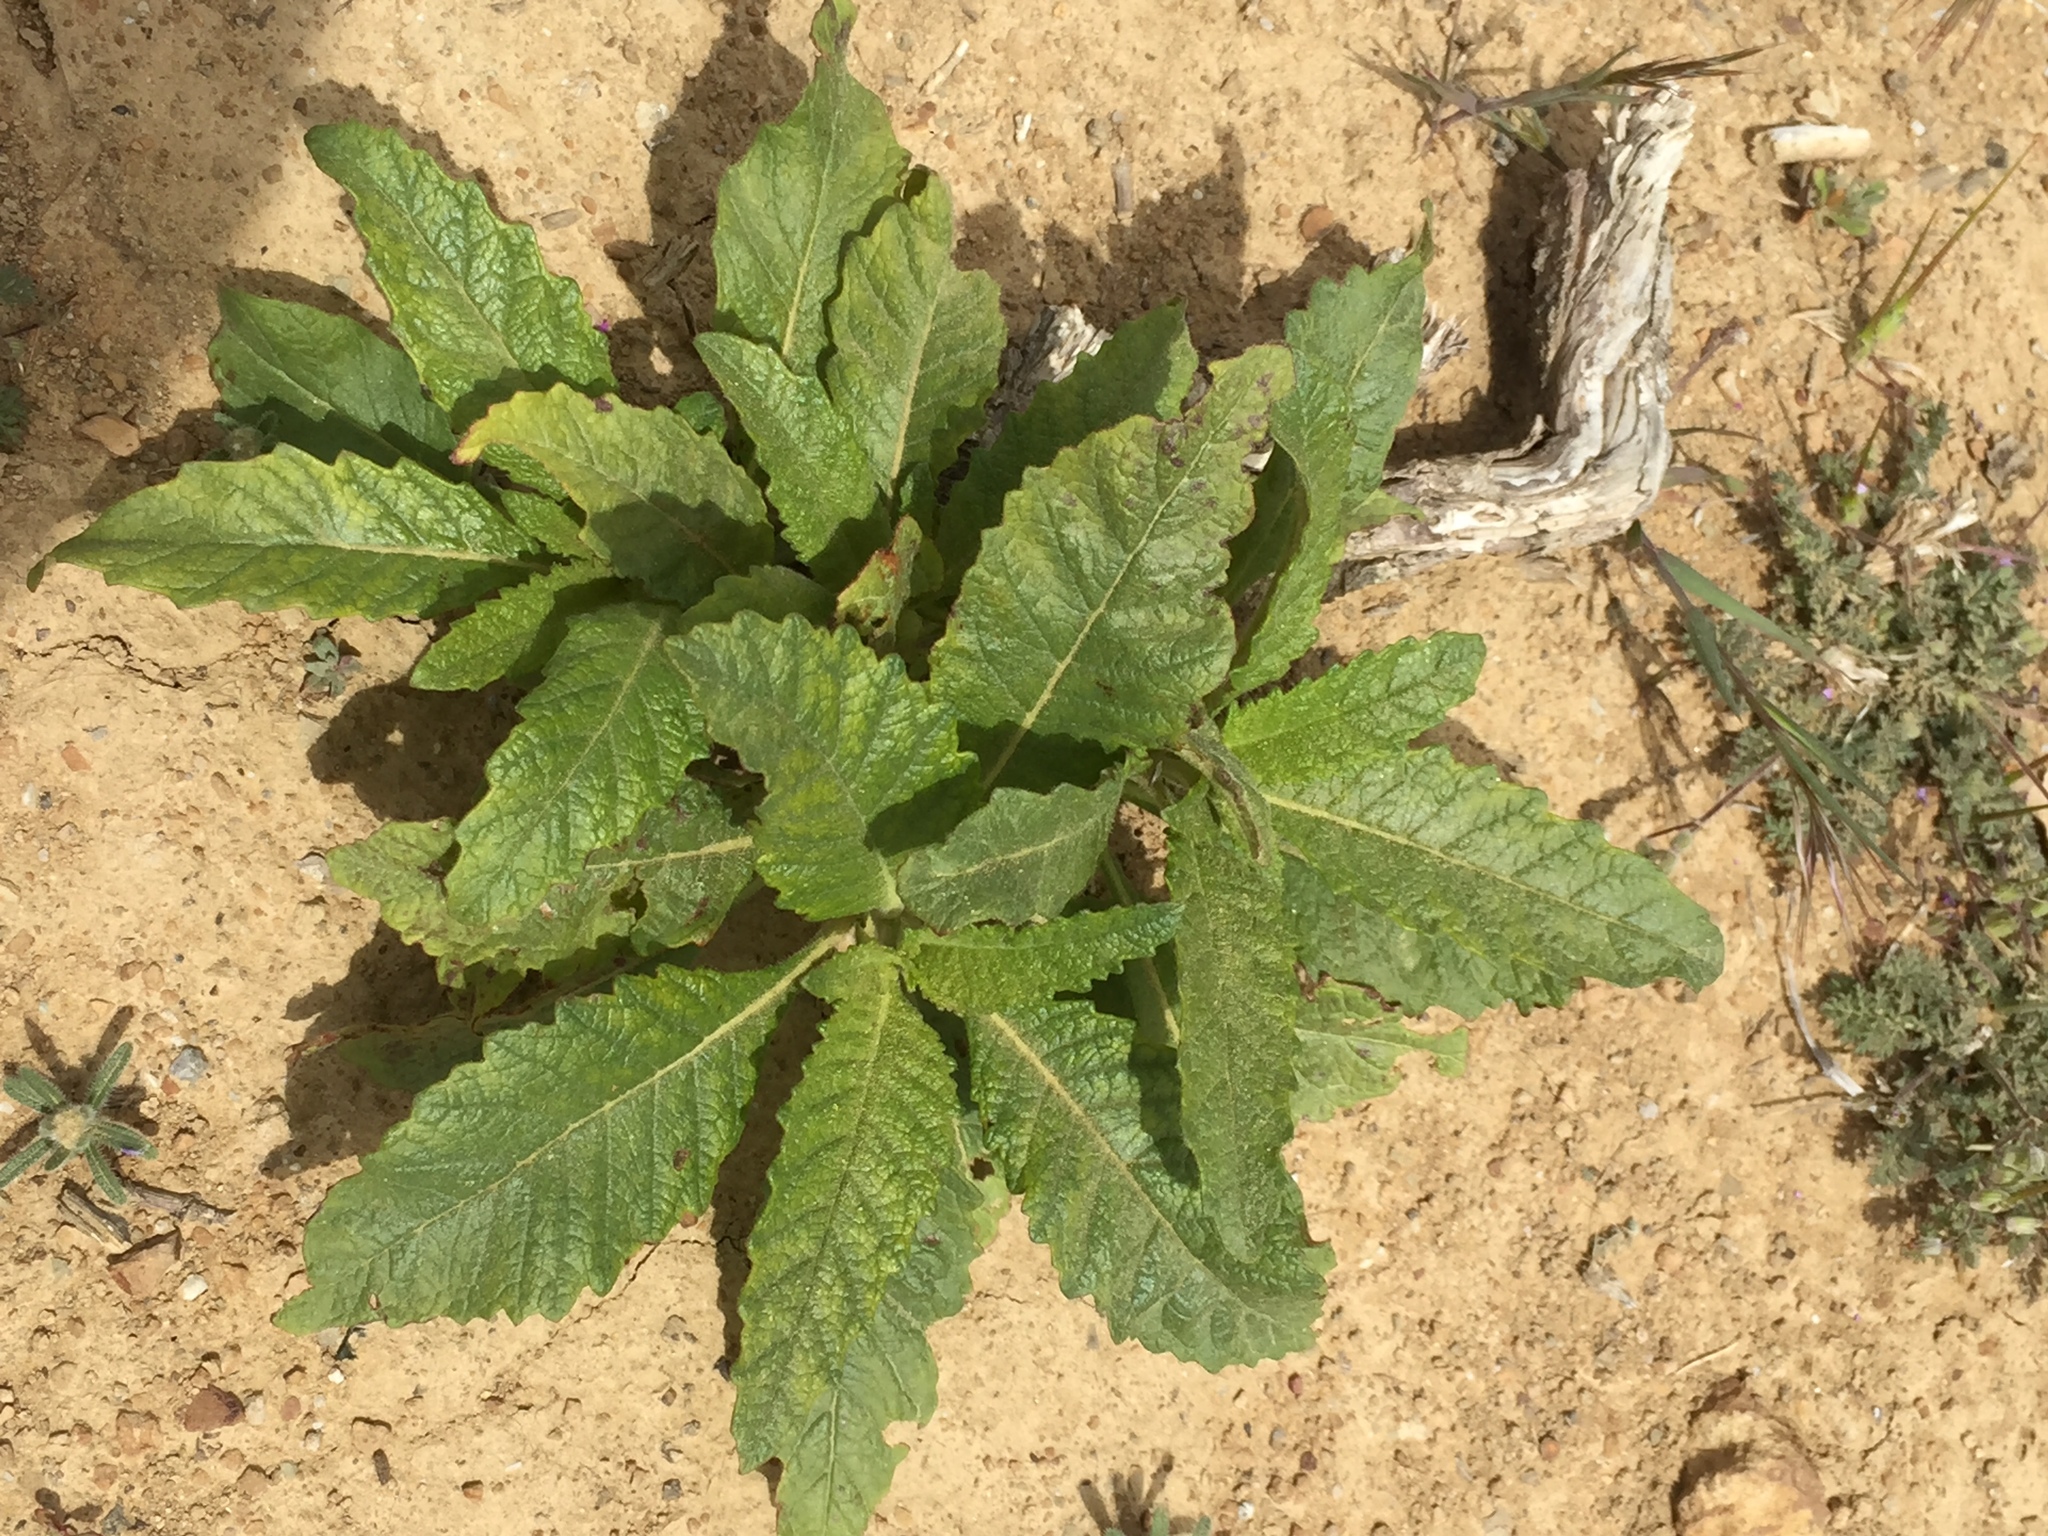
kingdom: Plantae
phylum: Tracheophyta
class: Magnoliopsida
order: Boraginales
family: Namaceae
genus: Eriodictyon
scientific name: Eriodictyon crassifolium
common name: Thick-leaf yerba-santa
